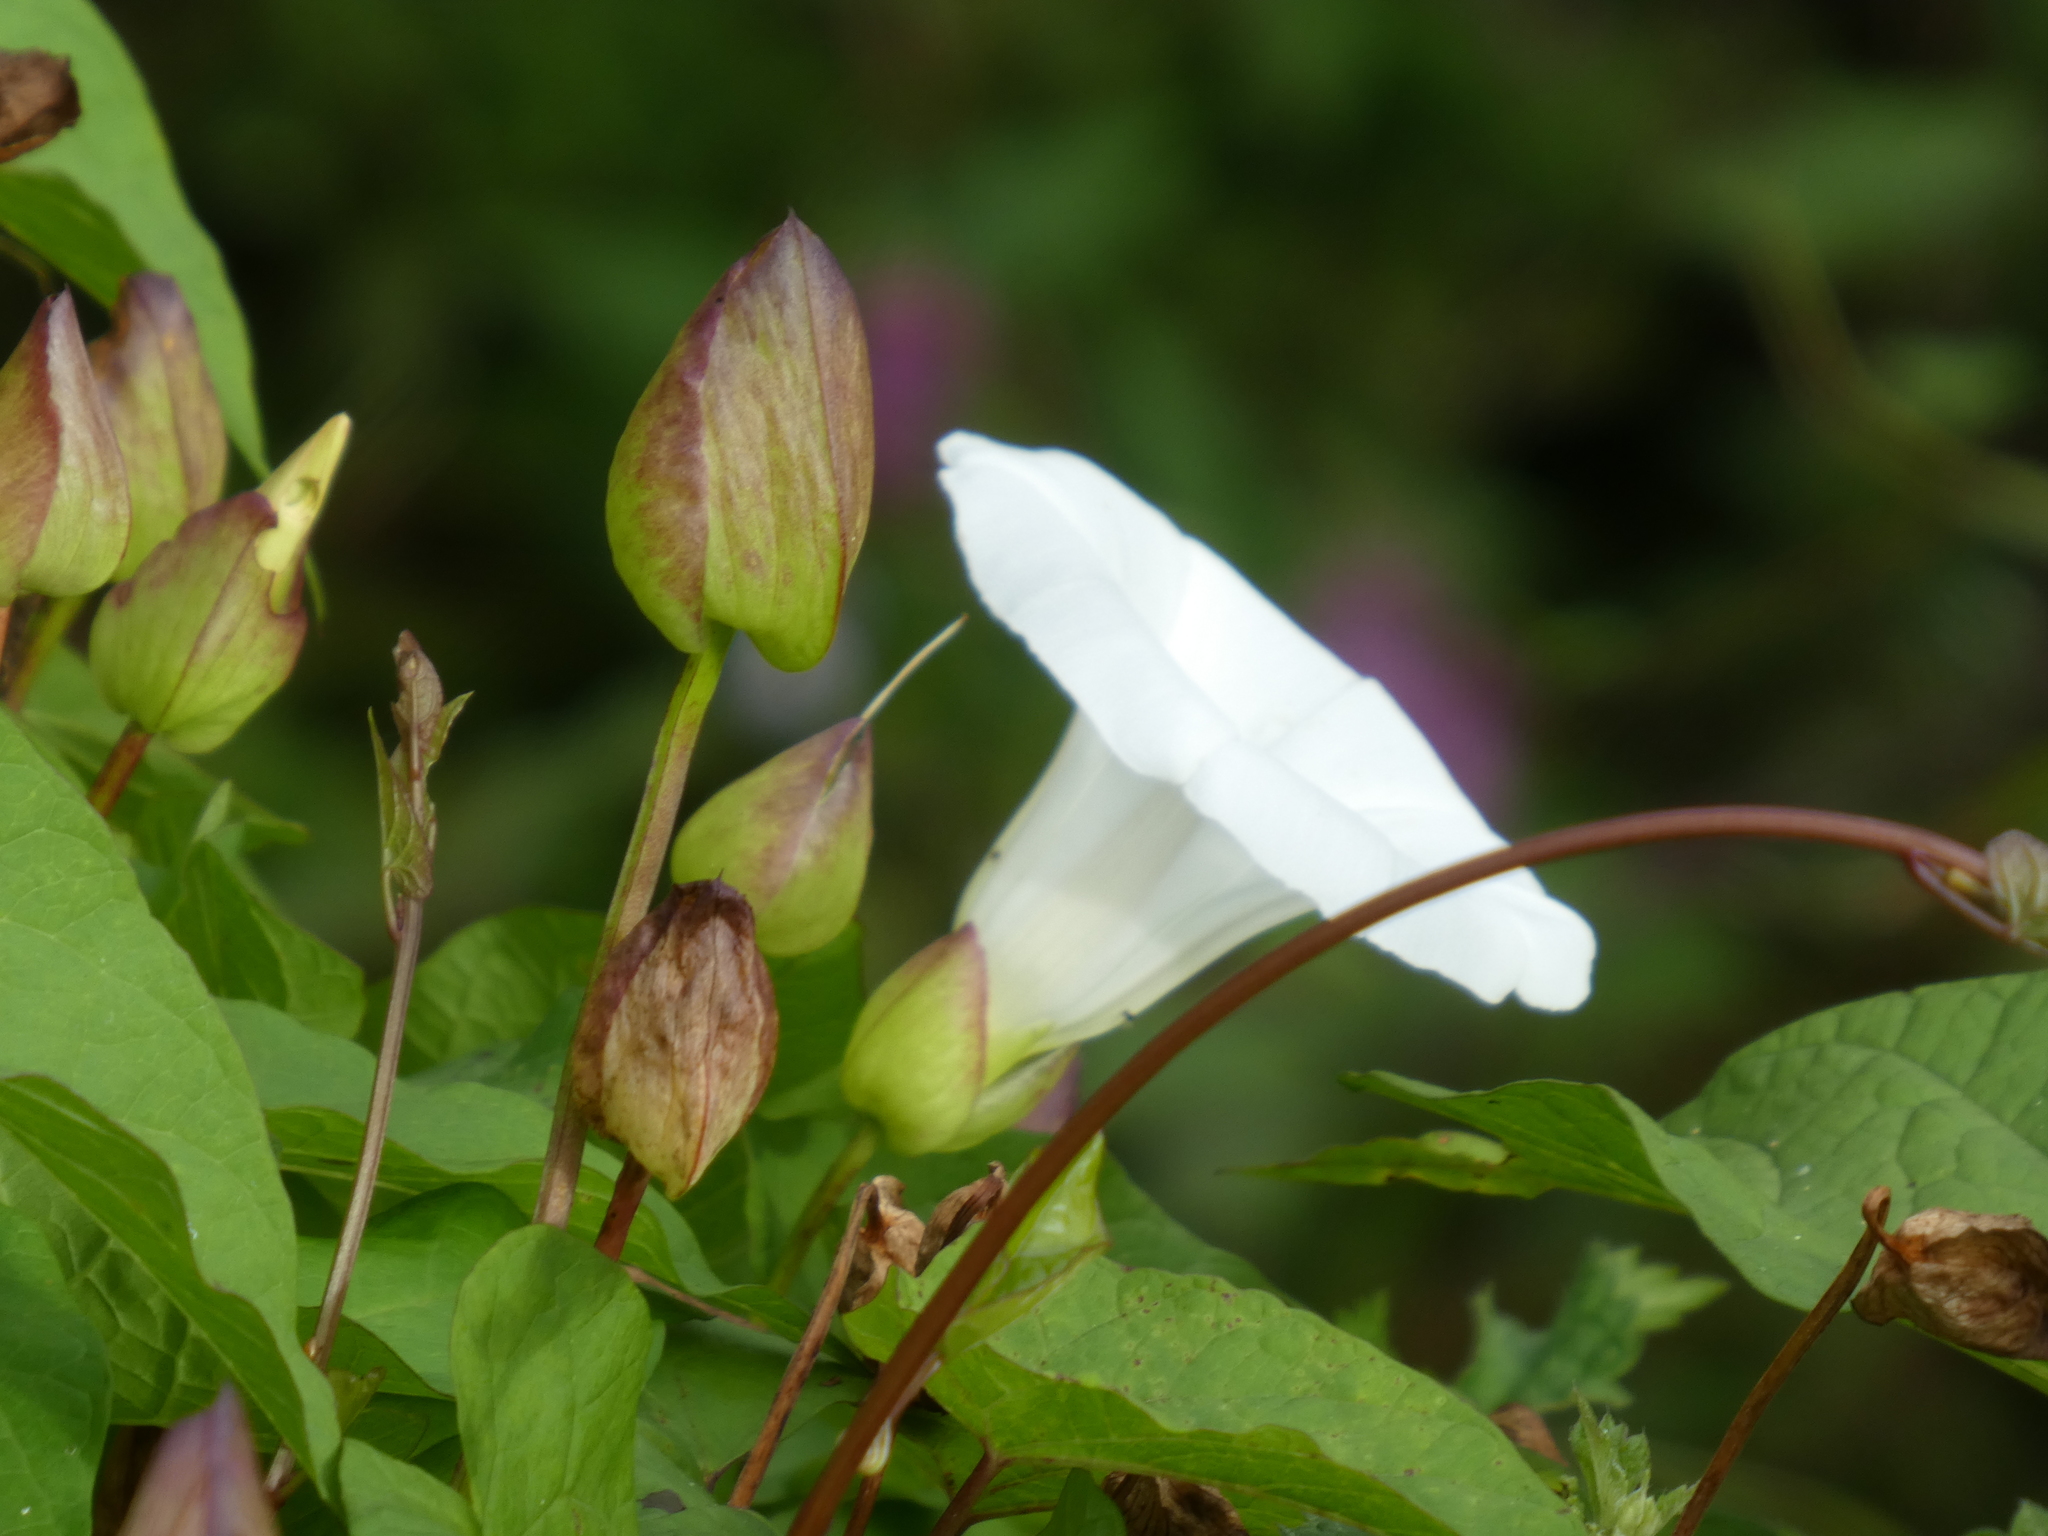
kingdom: Plantae
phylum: Tracheophyta
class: Magnoliopsida
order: Solanales
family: Convolvulaceae
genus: Calystegia
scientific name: Calystegia silvatica
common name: Large bindweed
